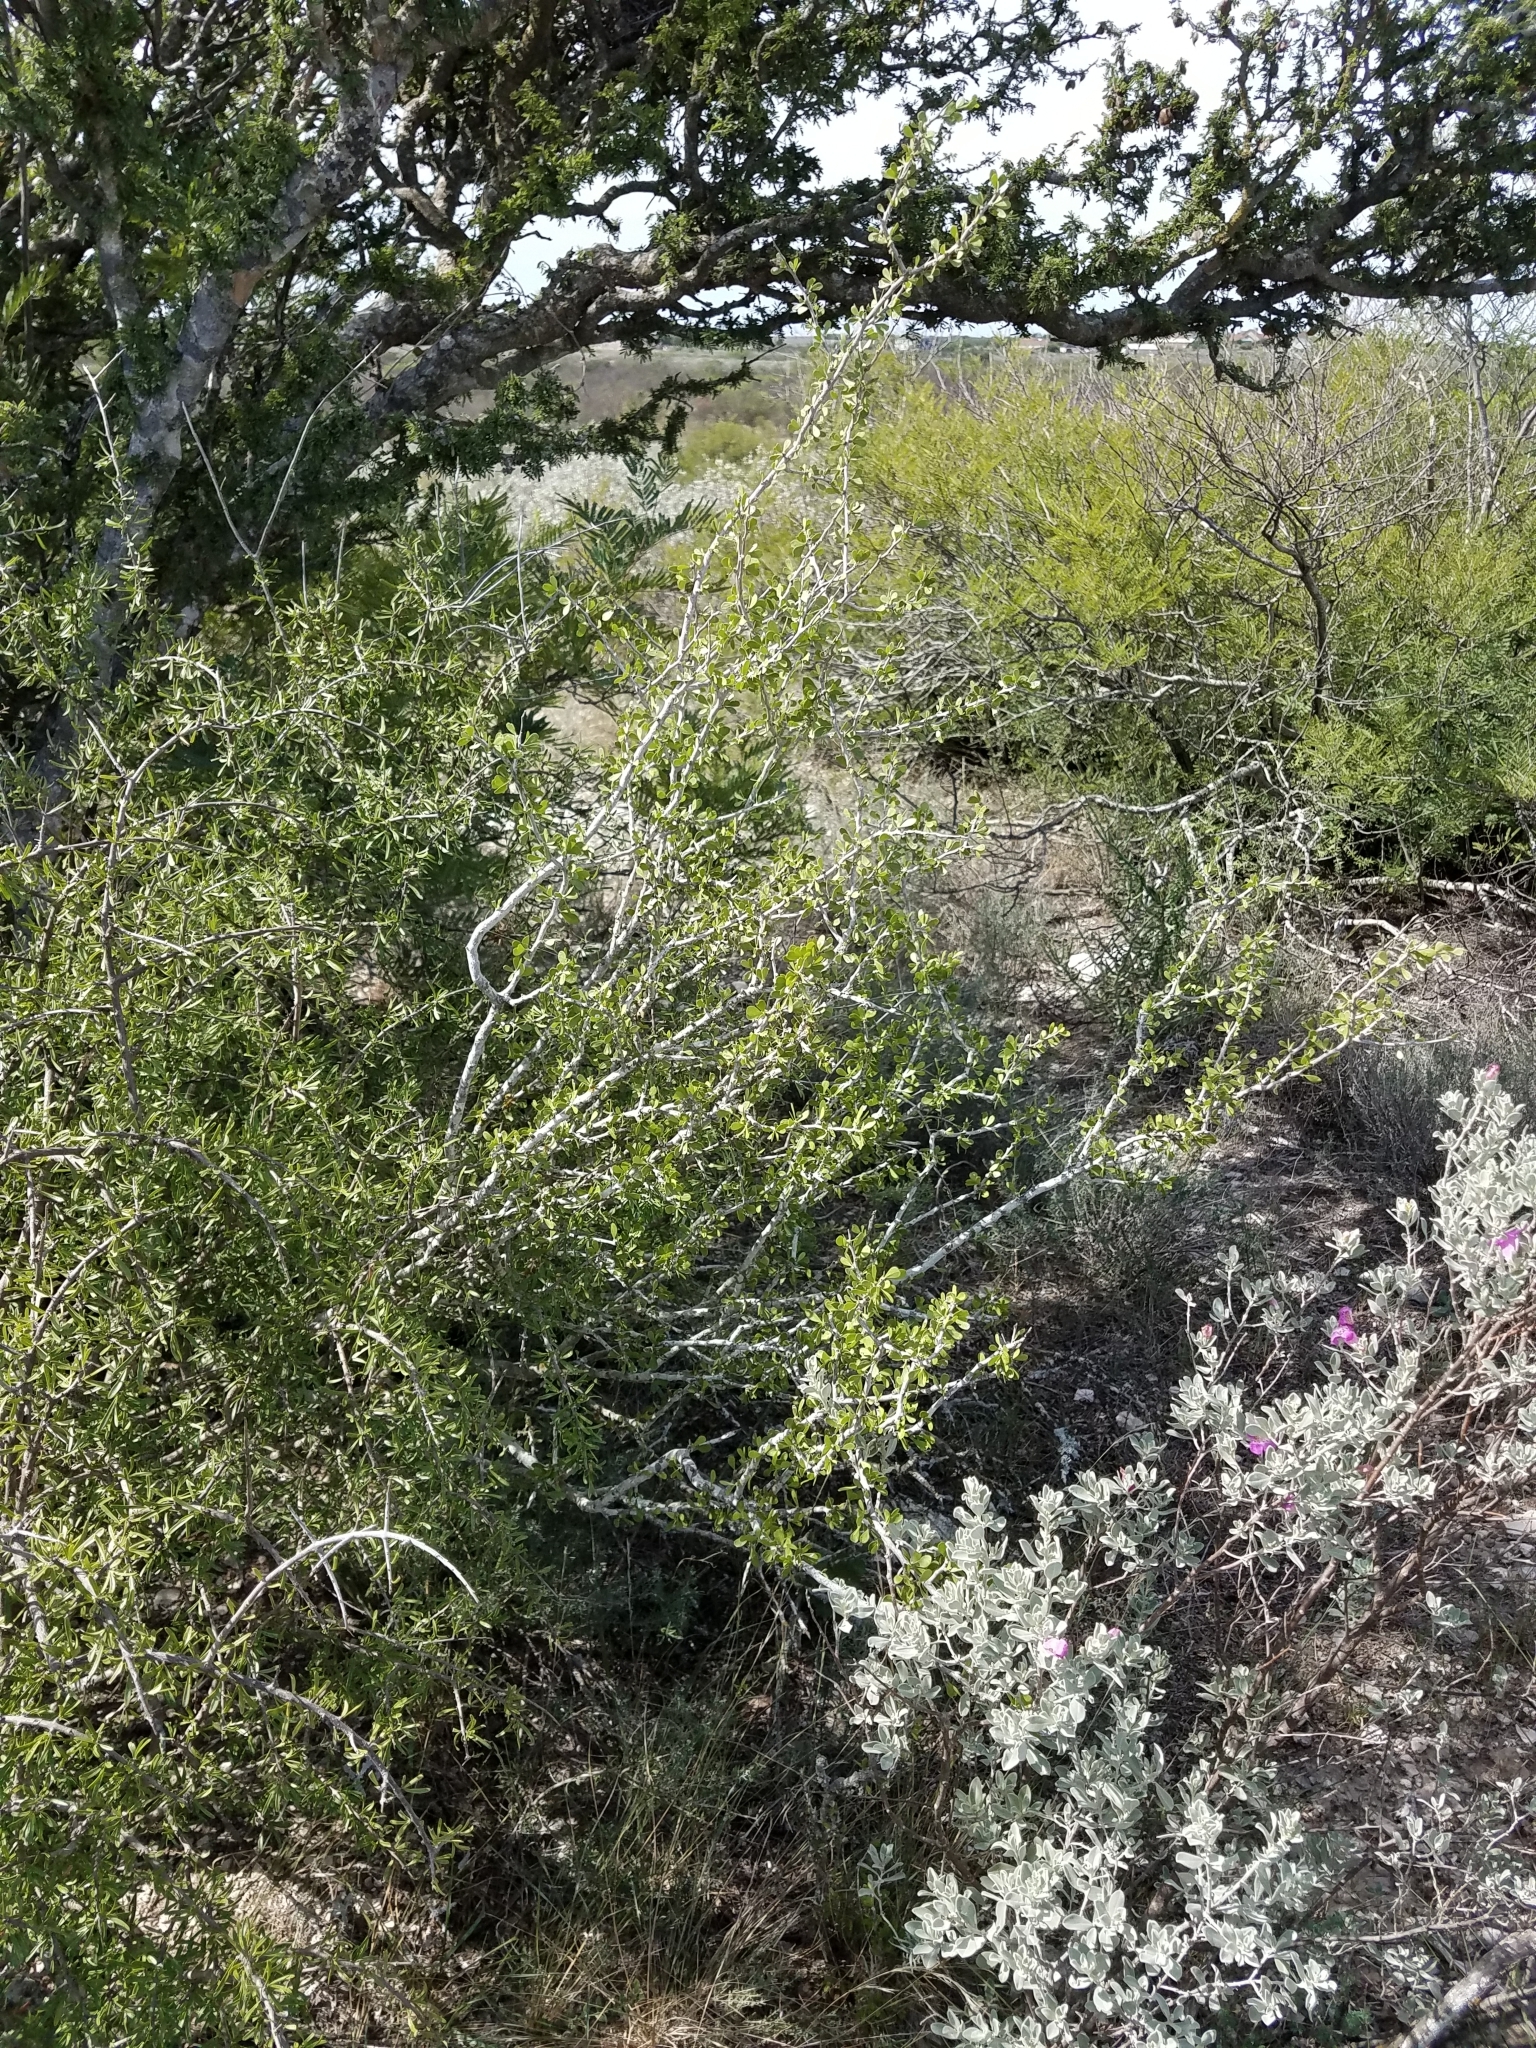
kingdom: Plantae
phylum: Tracheophyta
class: Magnoliopsida
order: Celastrales
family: Celastraceae
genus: Schaefferia
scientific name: Schaefferia cuneifolia
